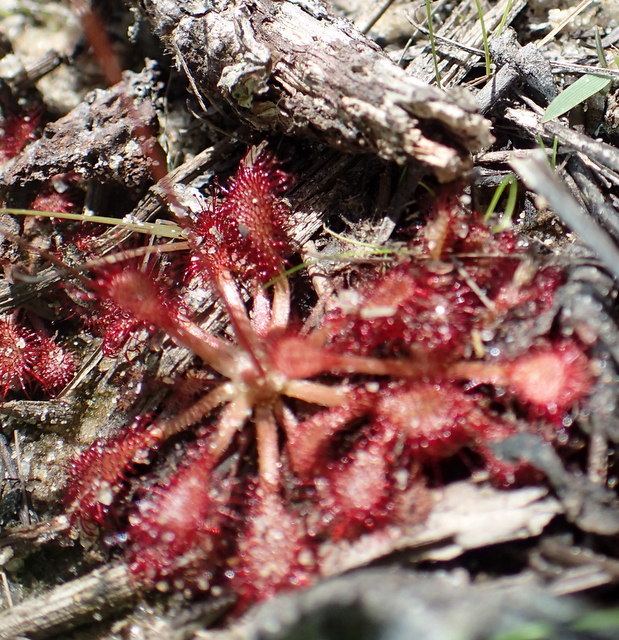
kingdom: Plantae
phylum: Tracheophyta
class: Magnoliopsida
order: Caryophyllales
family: Droseraceae
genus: Drosera
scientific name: Drosera capillaris
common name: Pink sundew
